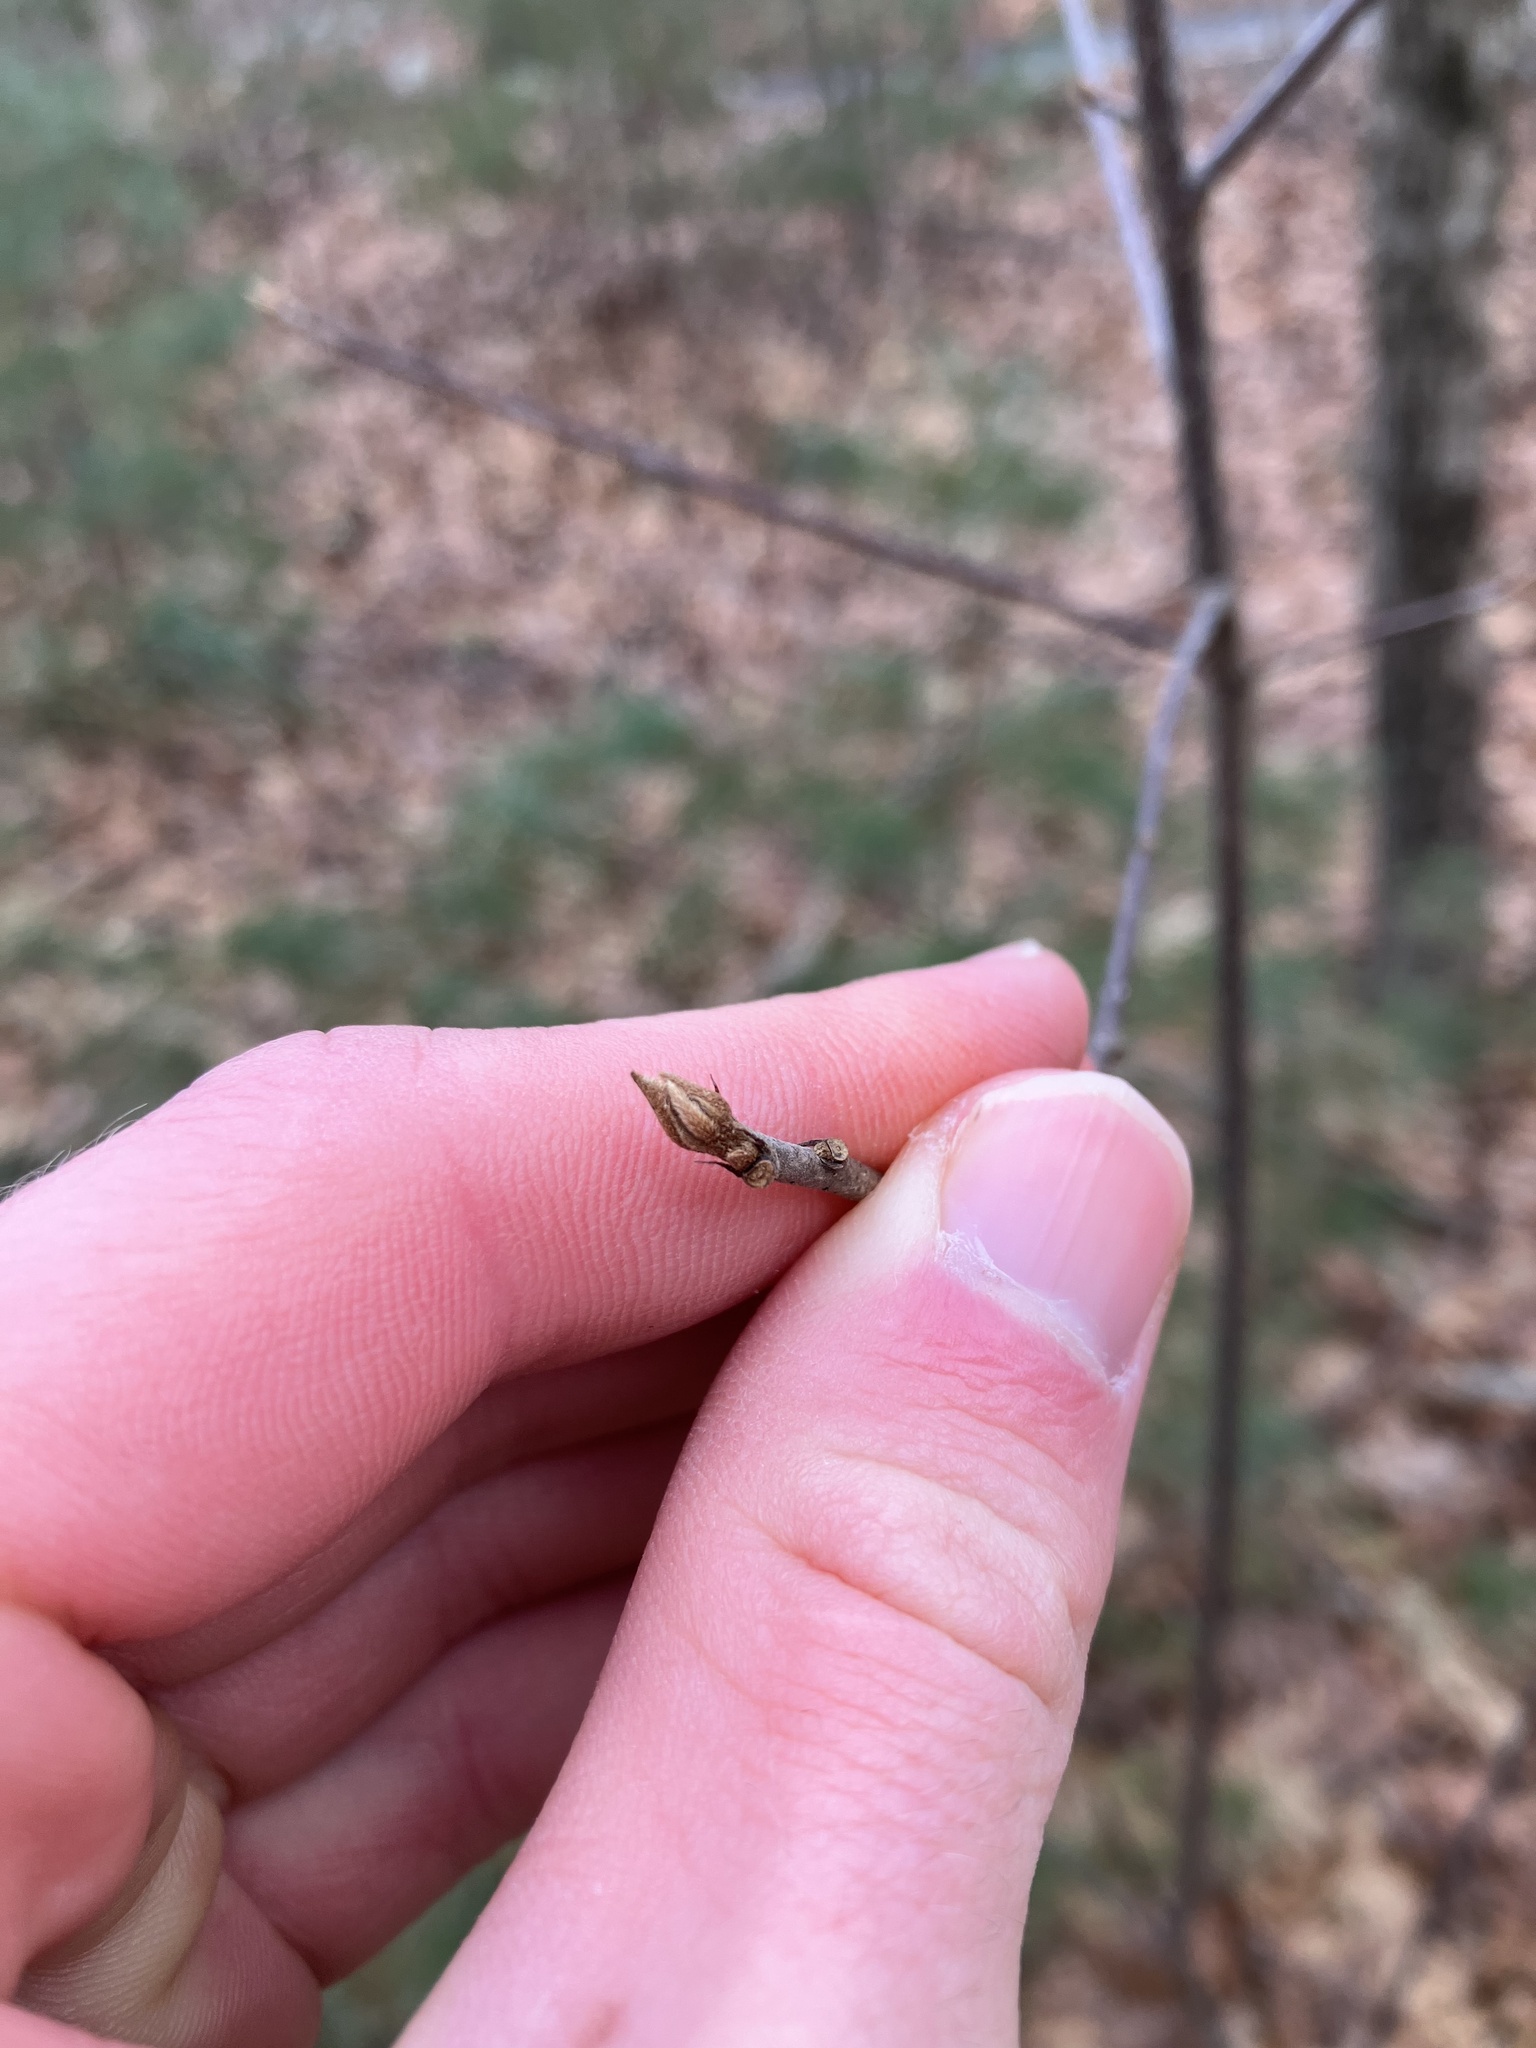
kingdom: Plantae
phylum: Tracheophyta
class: Magnoliopsida
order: Rosales
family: Rhamnaceae
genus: Frangula
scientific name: Frangula alnus
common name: Alder buckthorn
